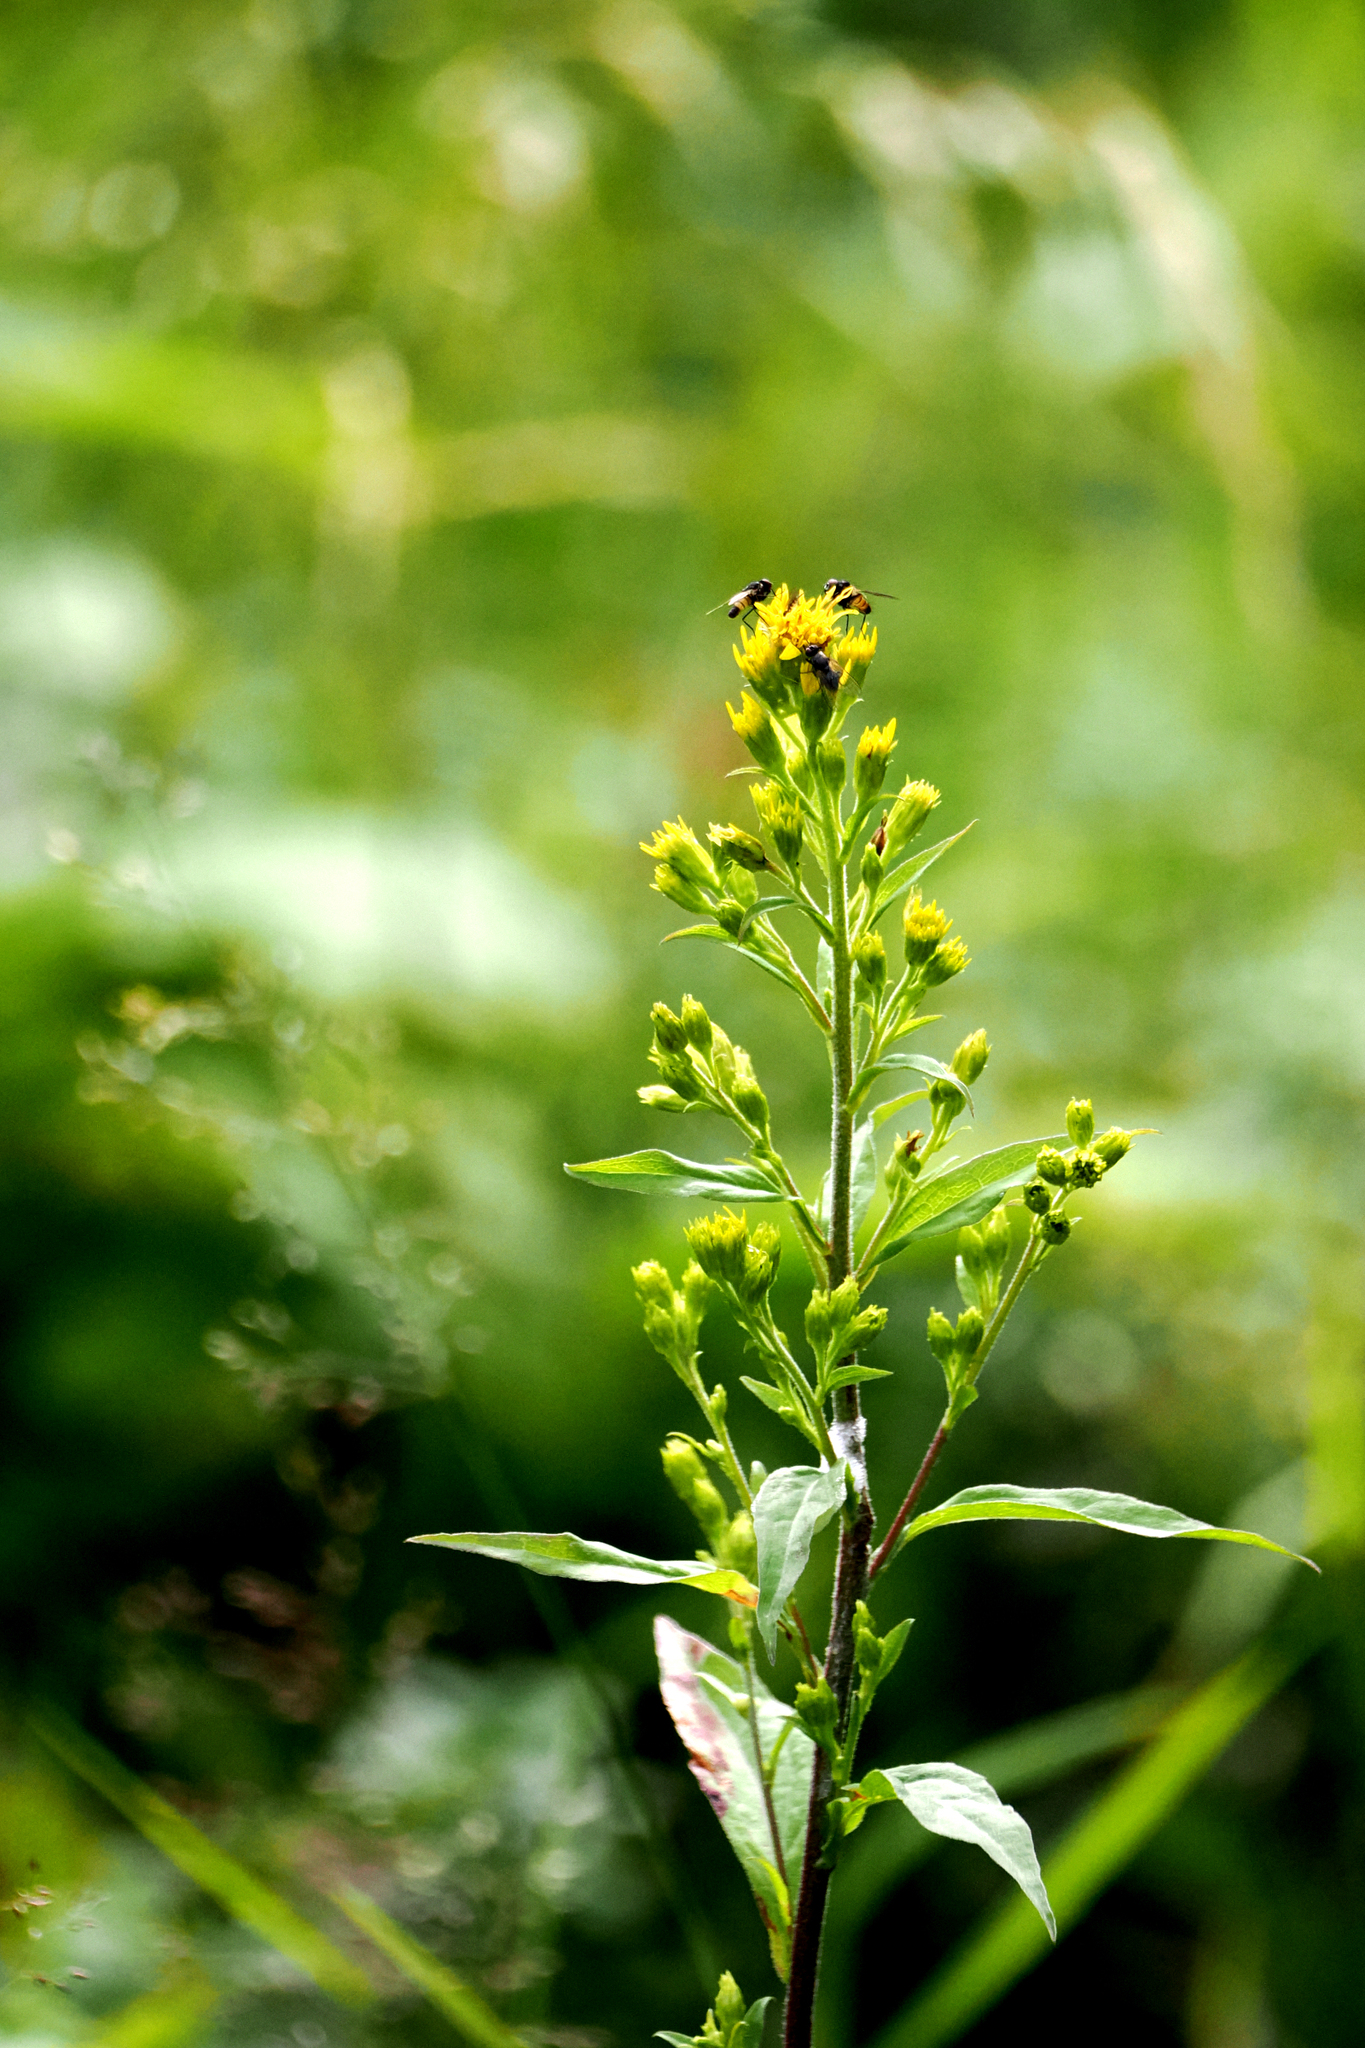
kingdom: Plantae
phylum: Tracheophyta
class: Magnoliopsida
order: Asterales
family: Asteraceae
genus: Solidago
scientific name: Solidago virgaurea
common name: Goldenrod
